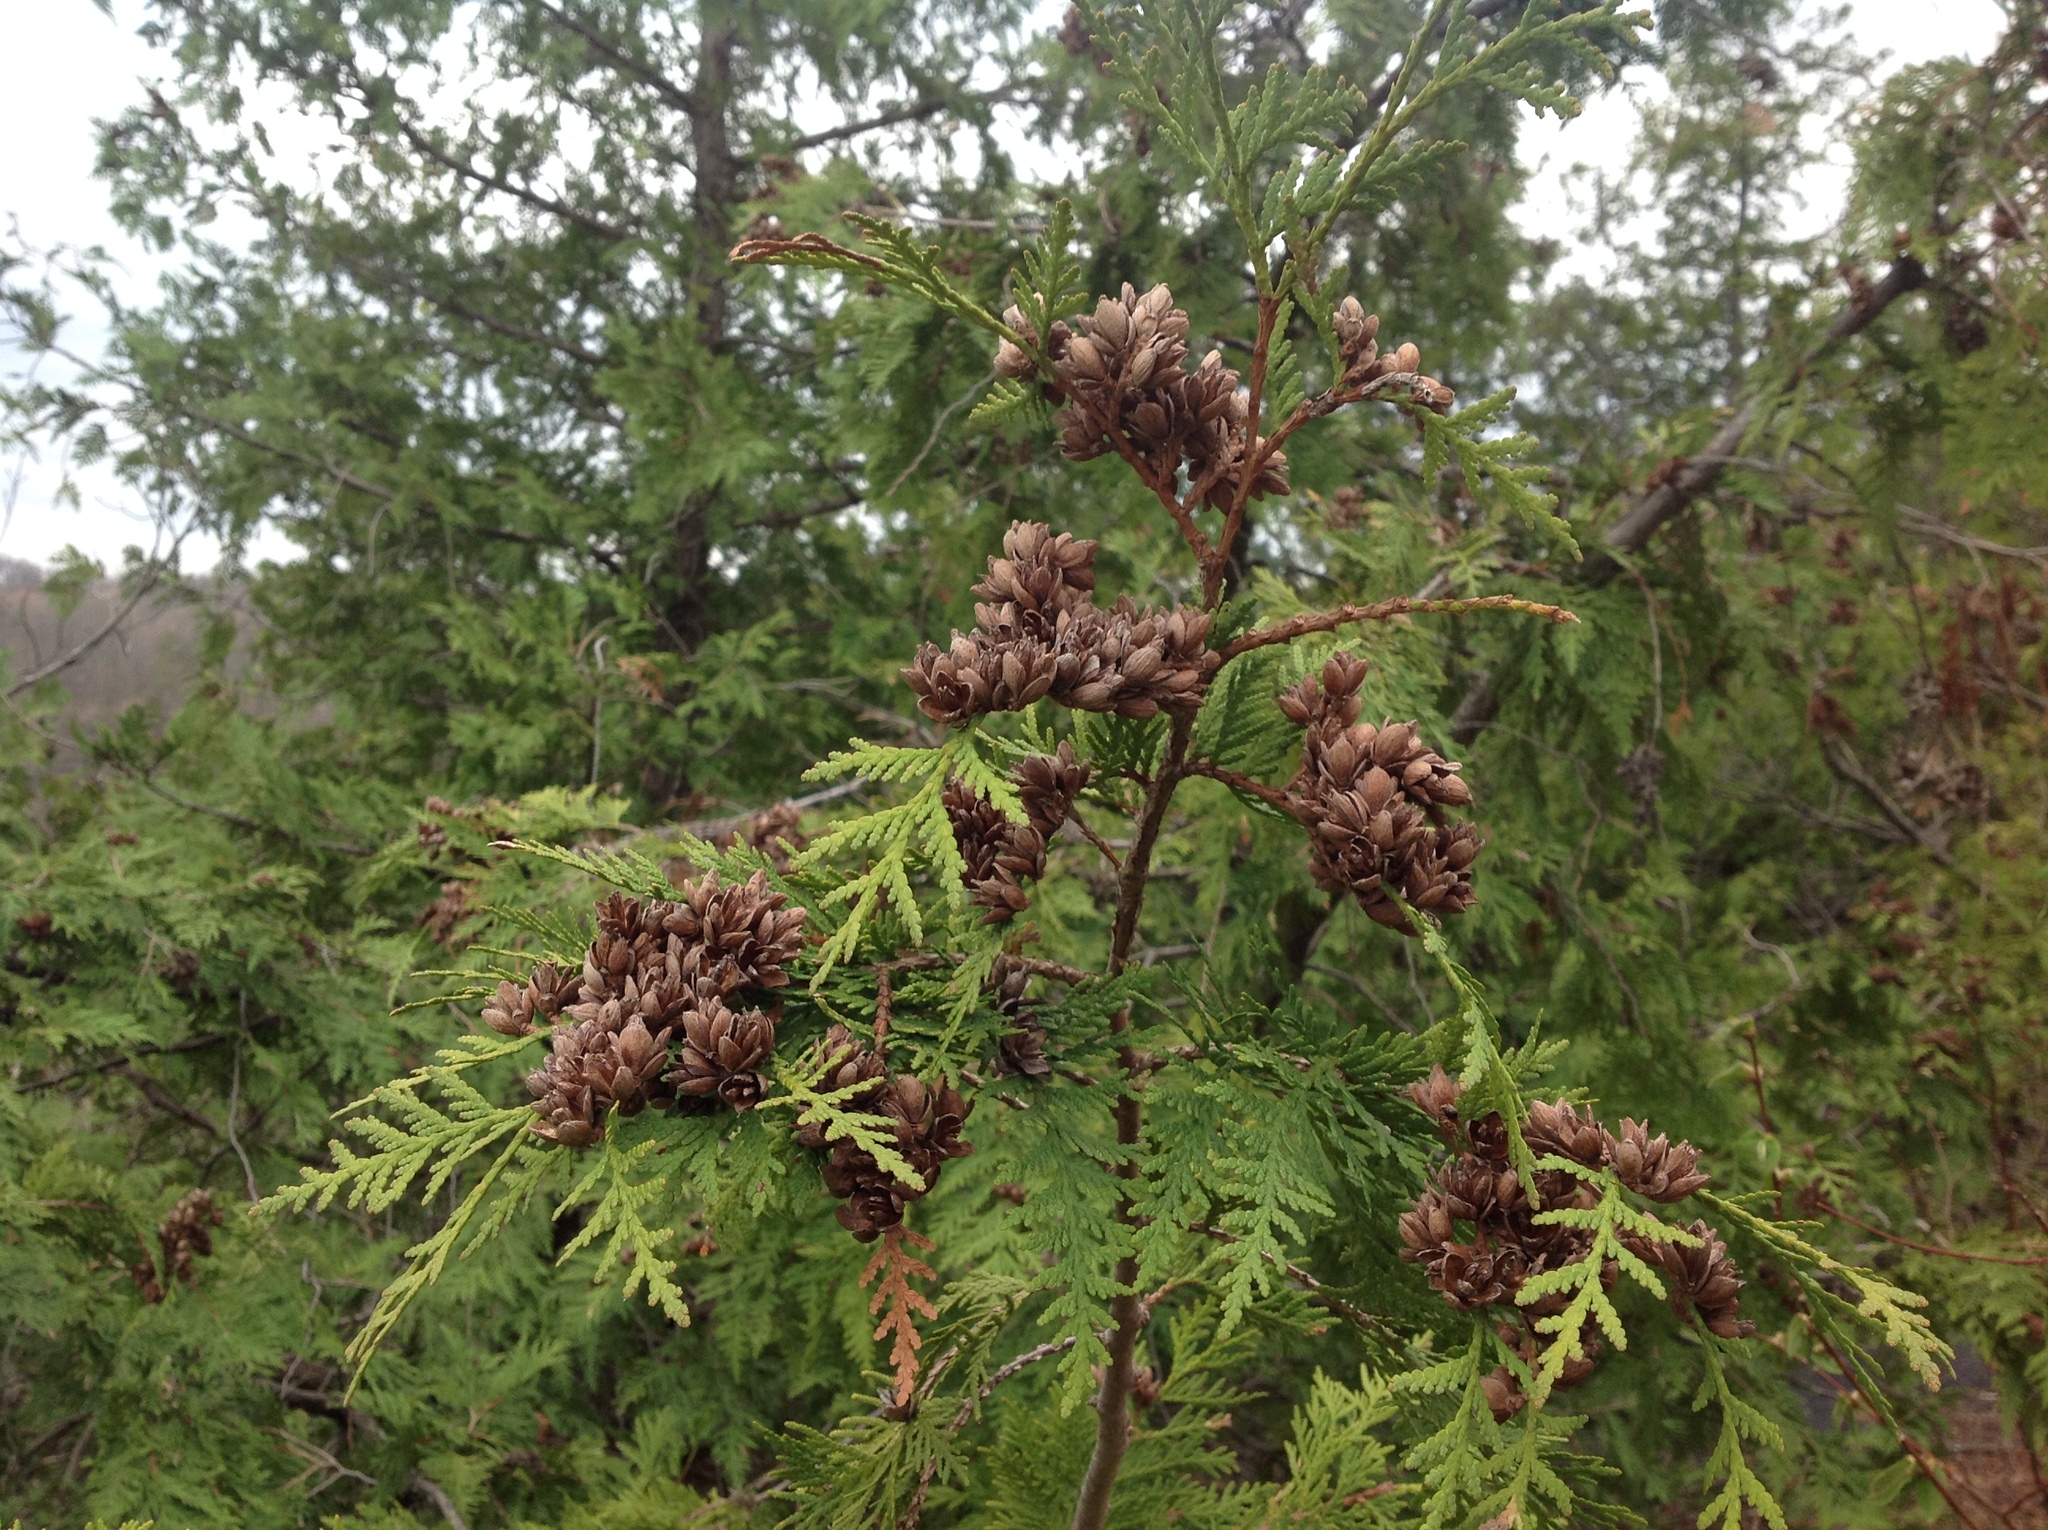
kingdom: Plantae
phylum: Tracheophyta
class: Pinopsida
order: Pinales
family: Cupressaceae
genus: Thuja
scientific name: Thuja occidentalis
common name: Northern white-cedar
